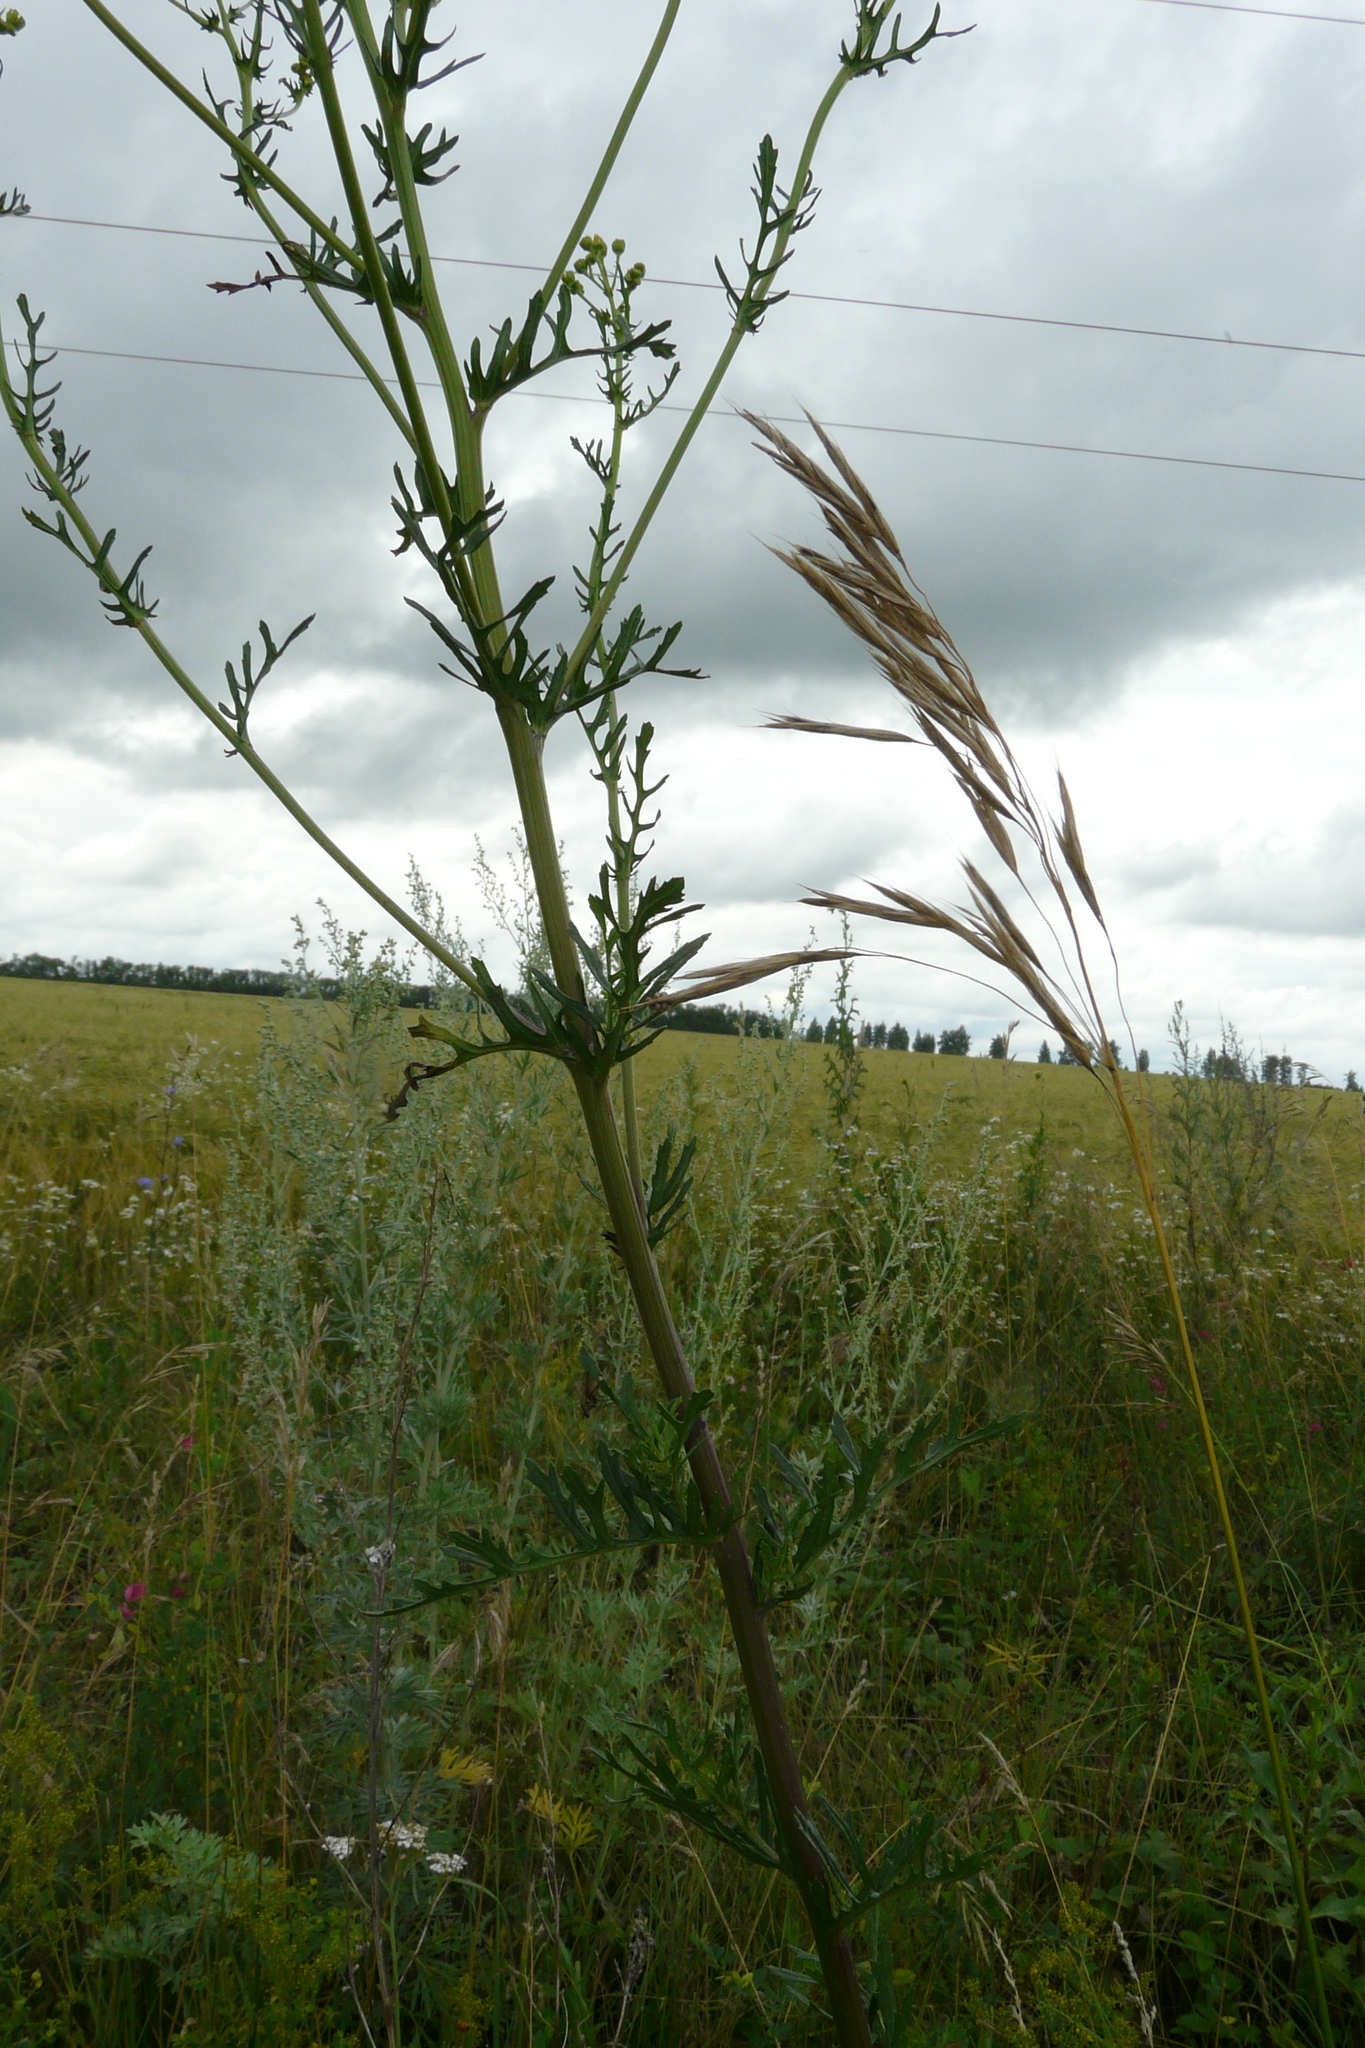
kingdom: Plantae
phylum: Tracheophyta
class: Magnoliopsida
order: Asterales
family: Asteraceae
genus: Jacobaea
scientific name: Jacobaea vulgaris
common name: Stinking willie
